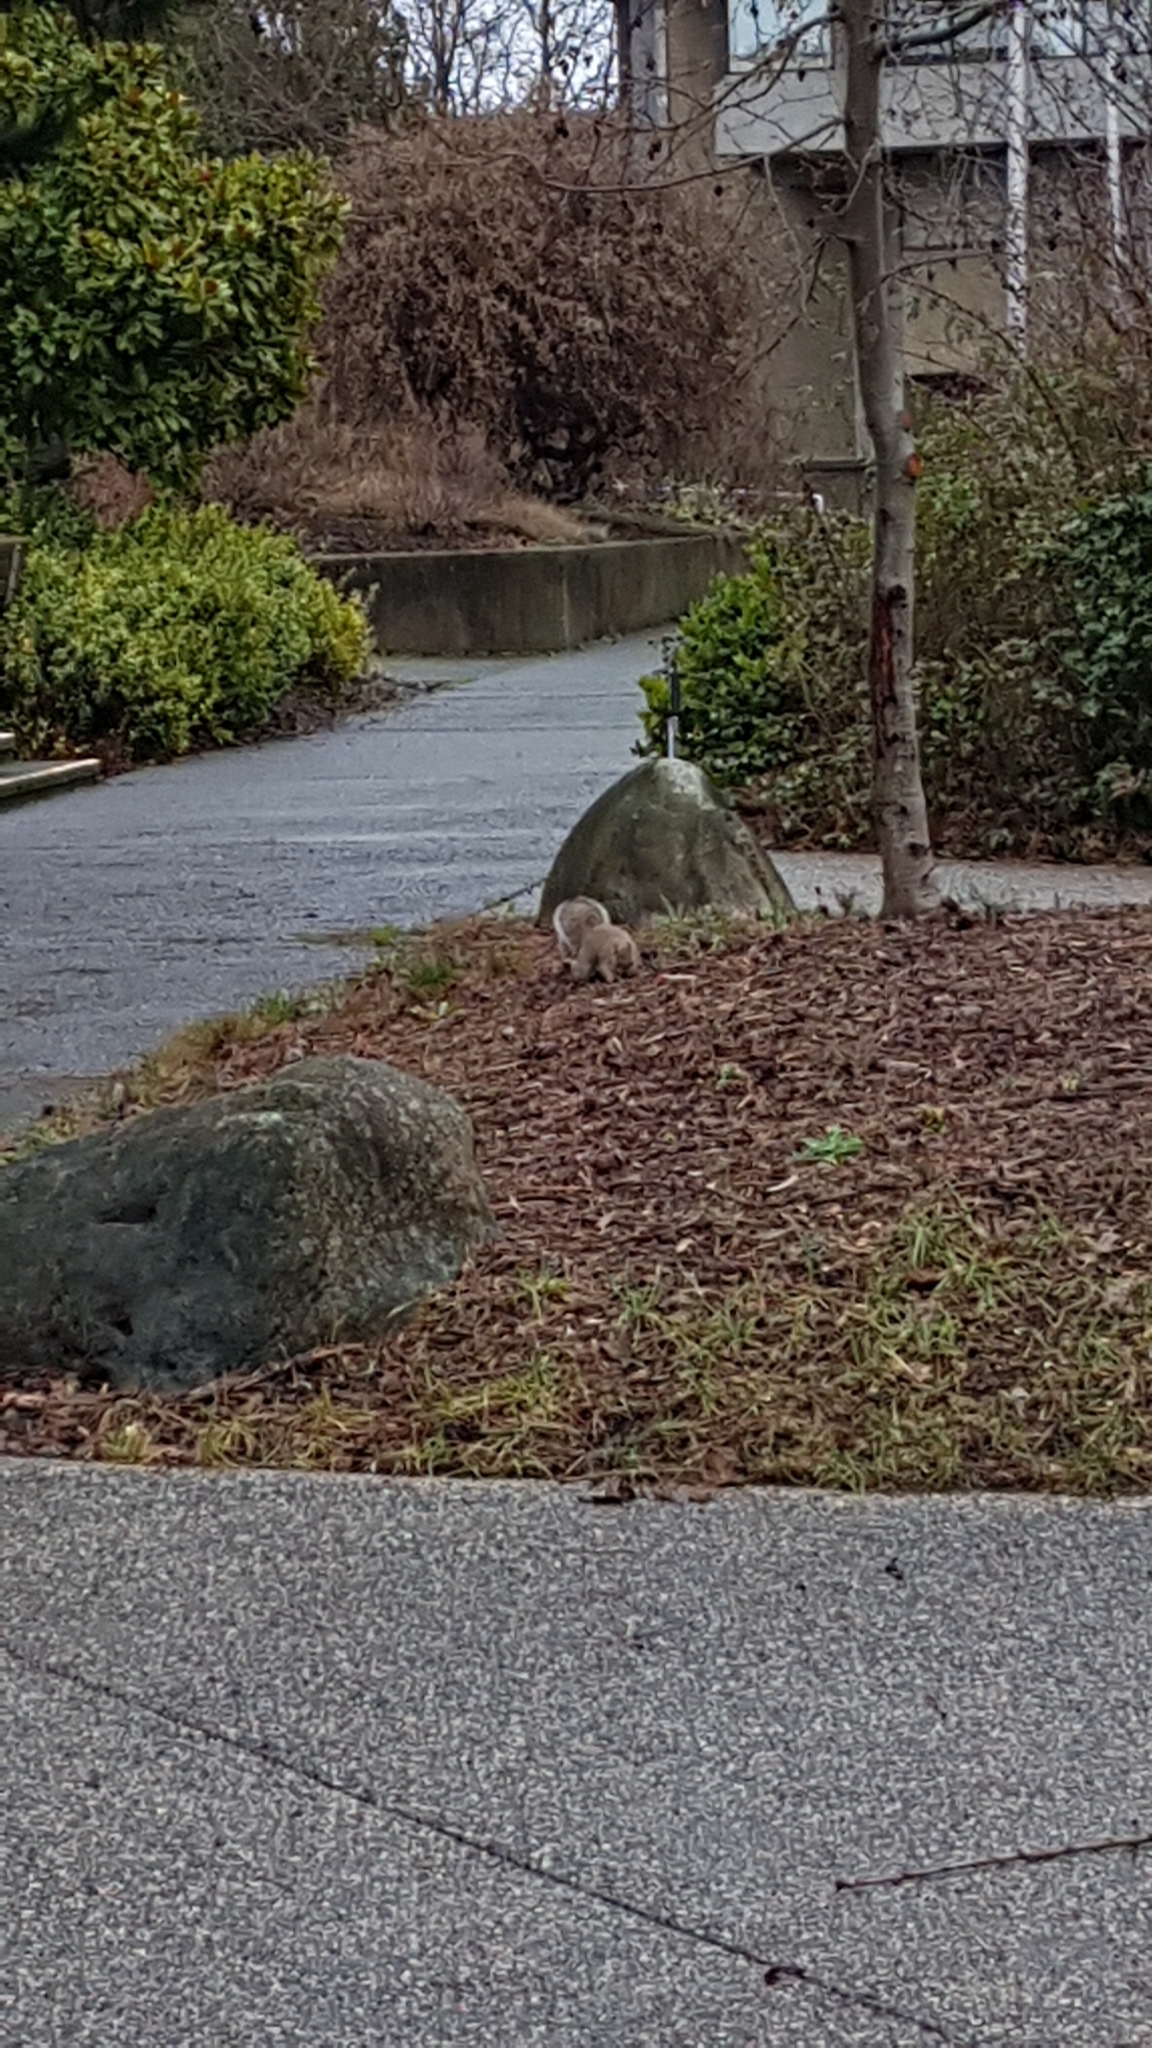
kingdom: Animalia
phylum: Chordata
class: Mammalia
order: Rodentia
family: Sciuridae
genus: Sciurus
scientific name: Sciurus carolinensis
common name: Eastern gray squirrel
